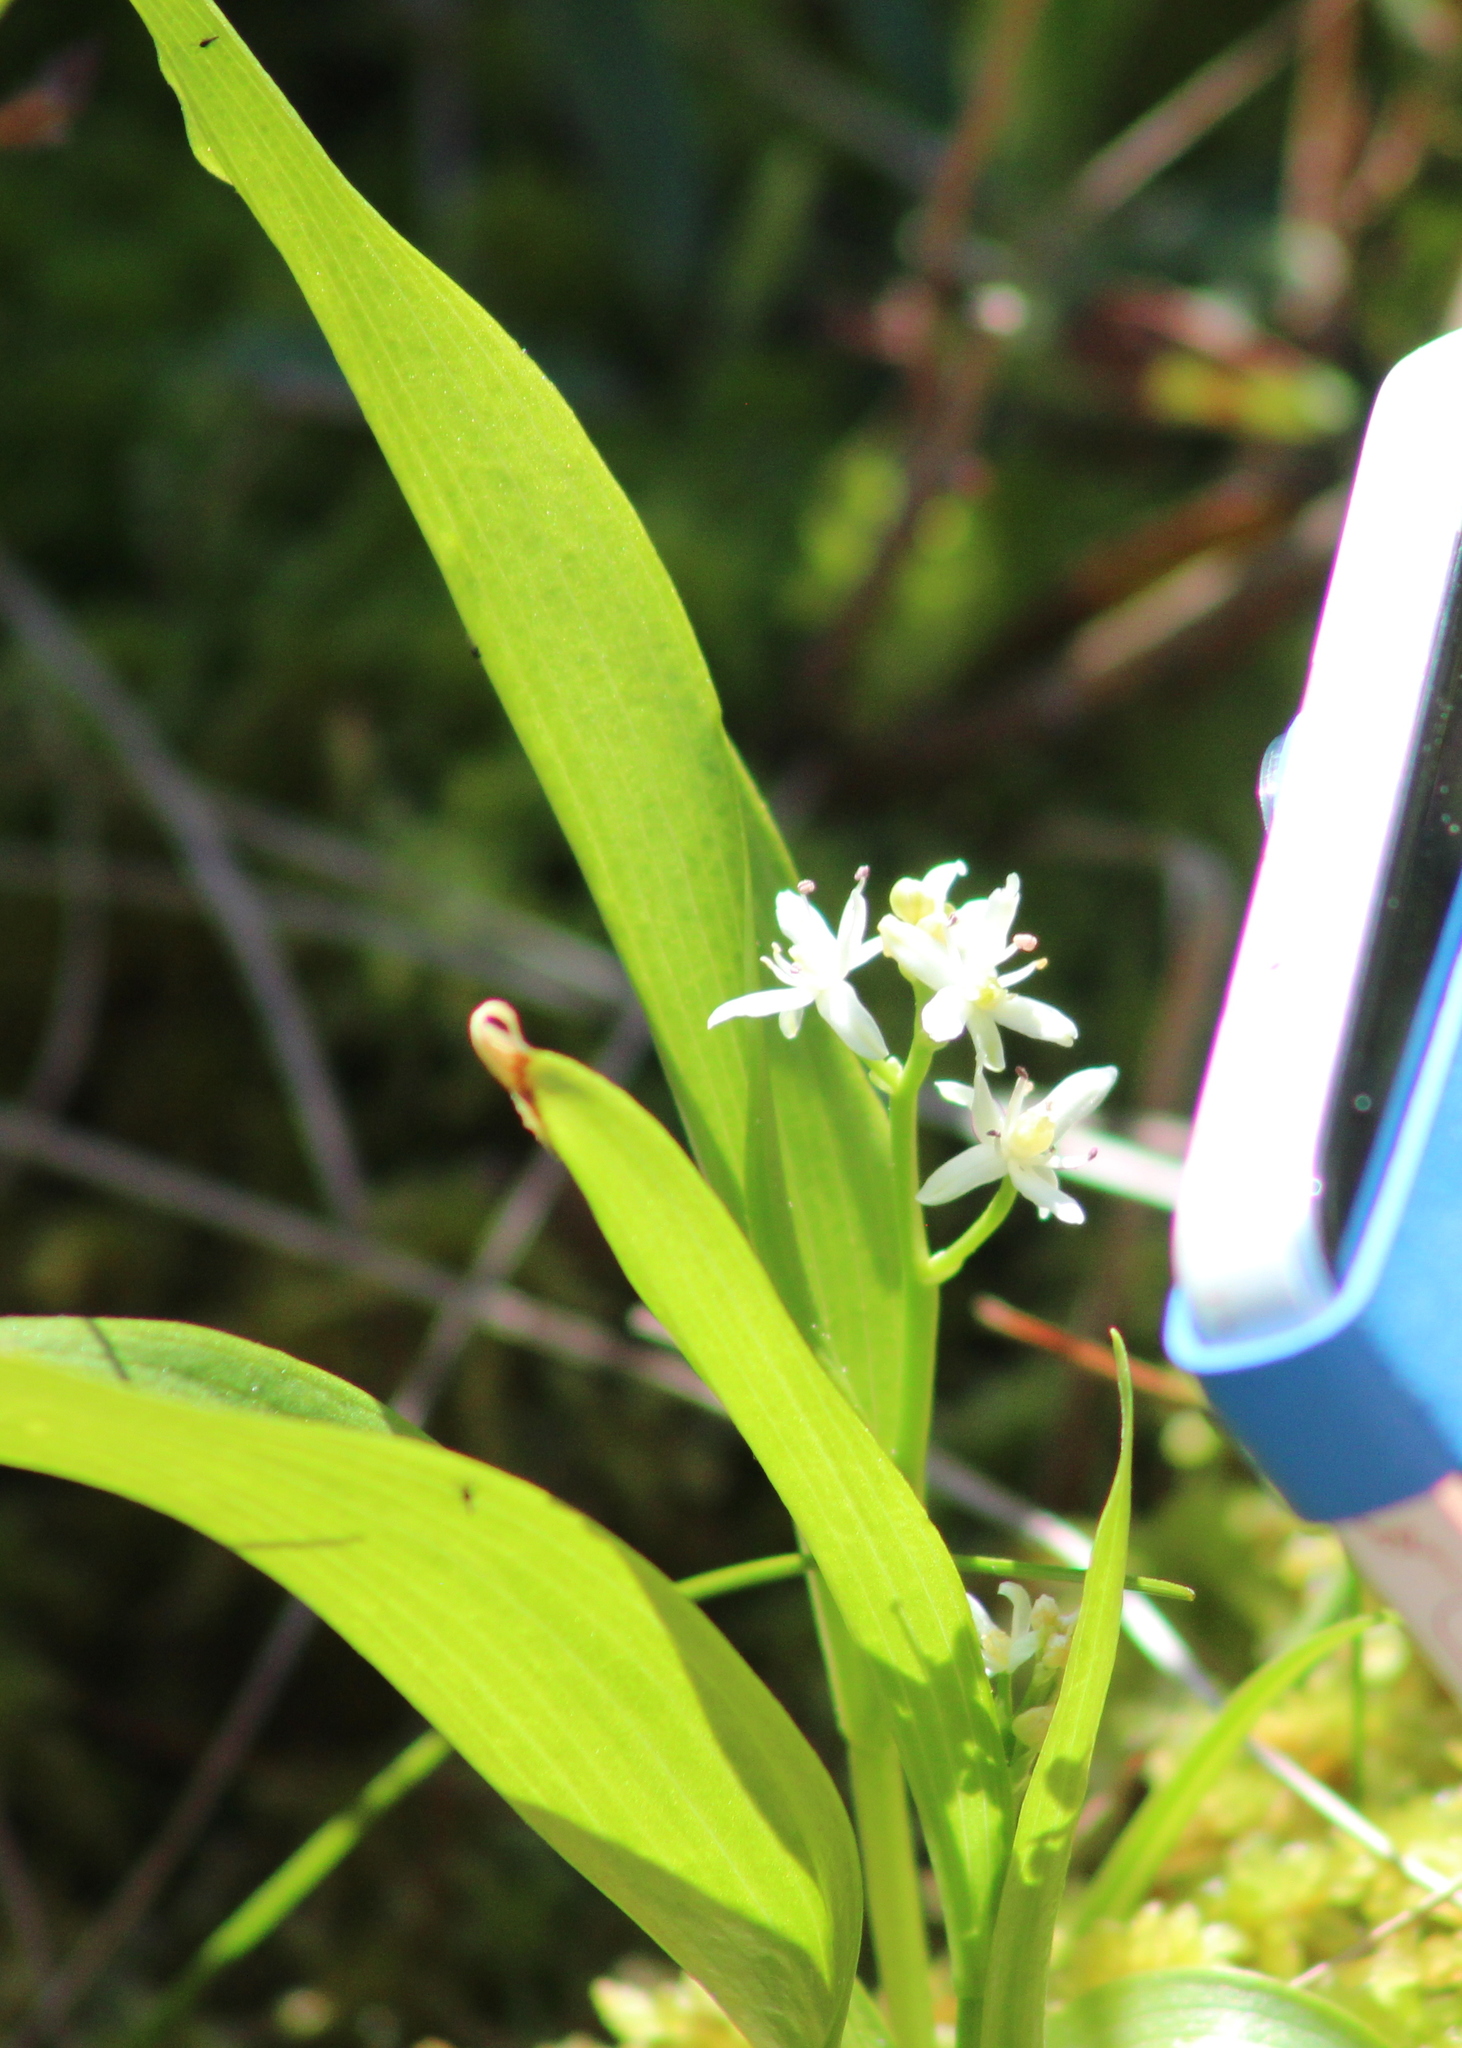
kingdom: Plantae
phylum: Tracheophyta
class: Liliopsida
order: Asparagales
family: Asparagaceae
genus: Maianthemum
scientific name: Maianthemum trifolium
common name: Swamp false solomon's seal
